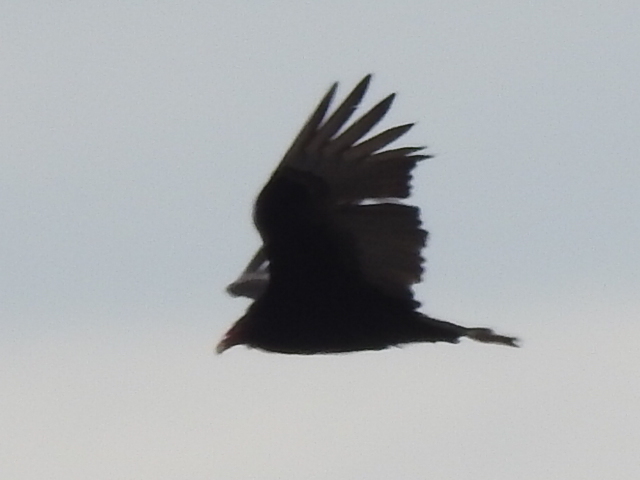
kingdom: Animalia
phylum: Chordata
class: Aves
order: Accipitriformes
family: Cathartidae
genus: Cathartes
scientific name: Cathartes aura
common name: Turkey vulture
